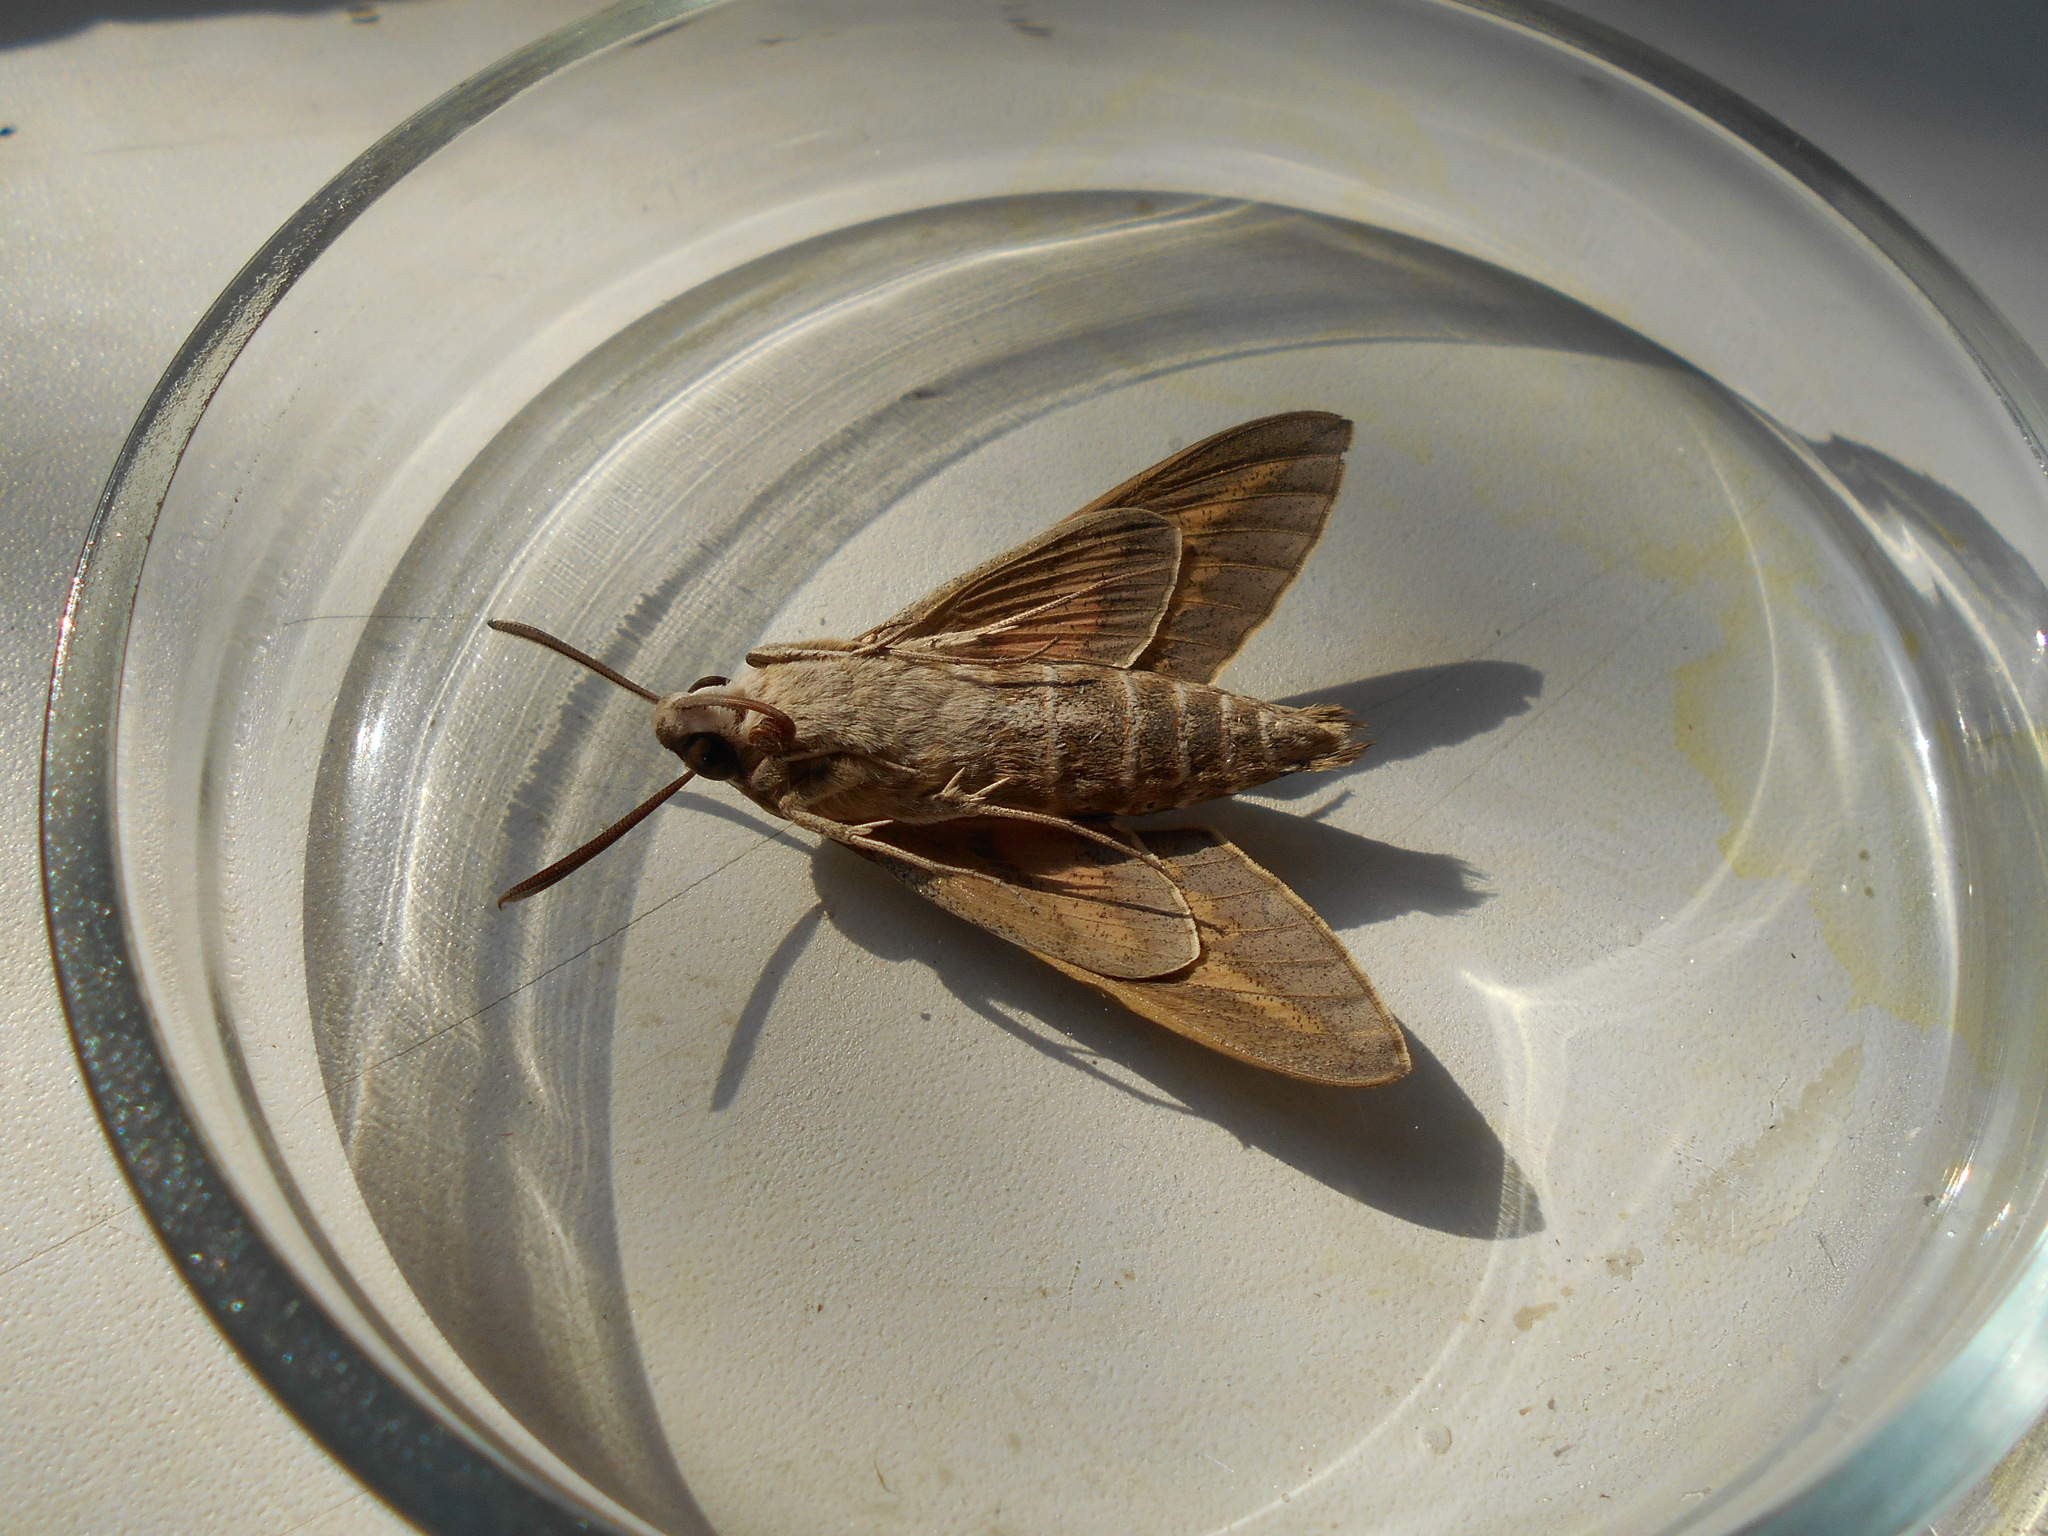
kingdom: Animalia
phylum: Arthropoda
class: Insecta
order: Lepidoptera
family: Sphingidae
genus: Hyles
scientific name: Hyles livornica
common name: Striped hawk-moth
